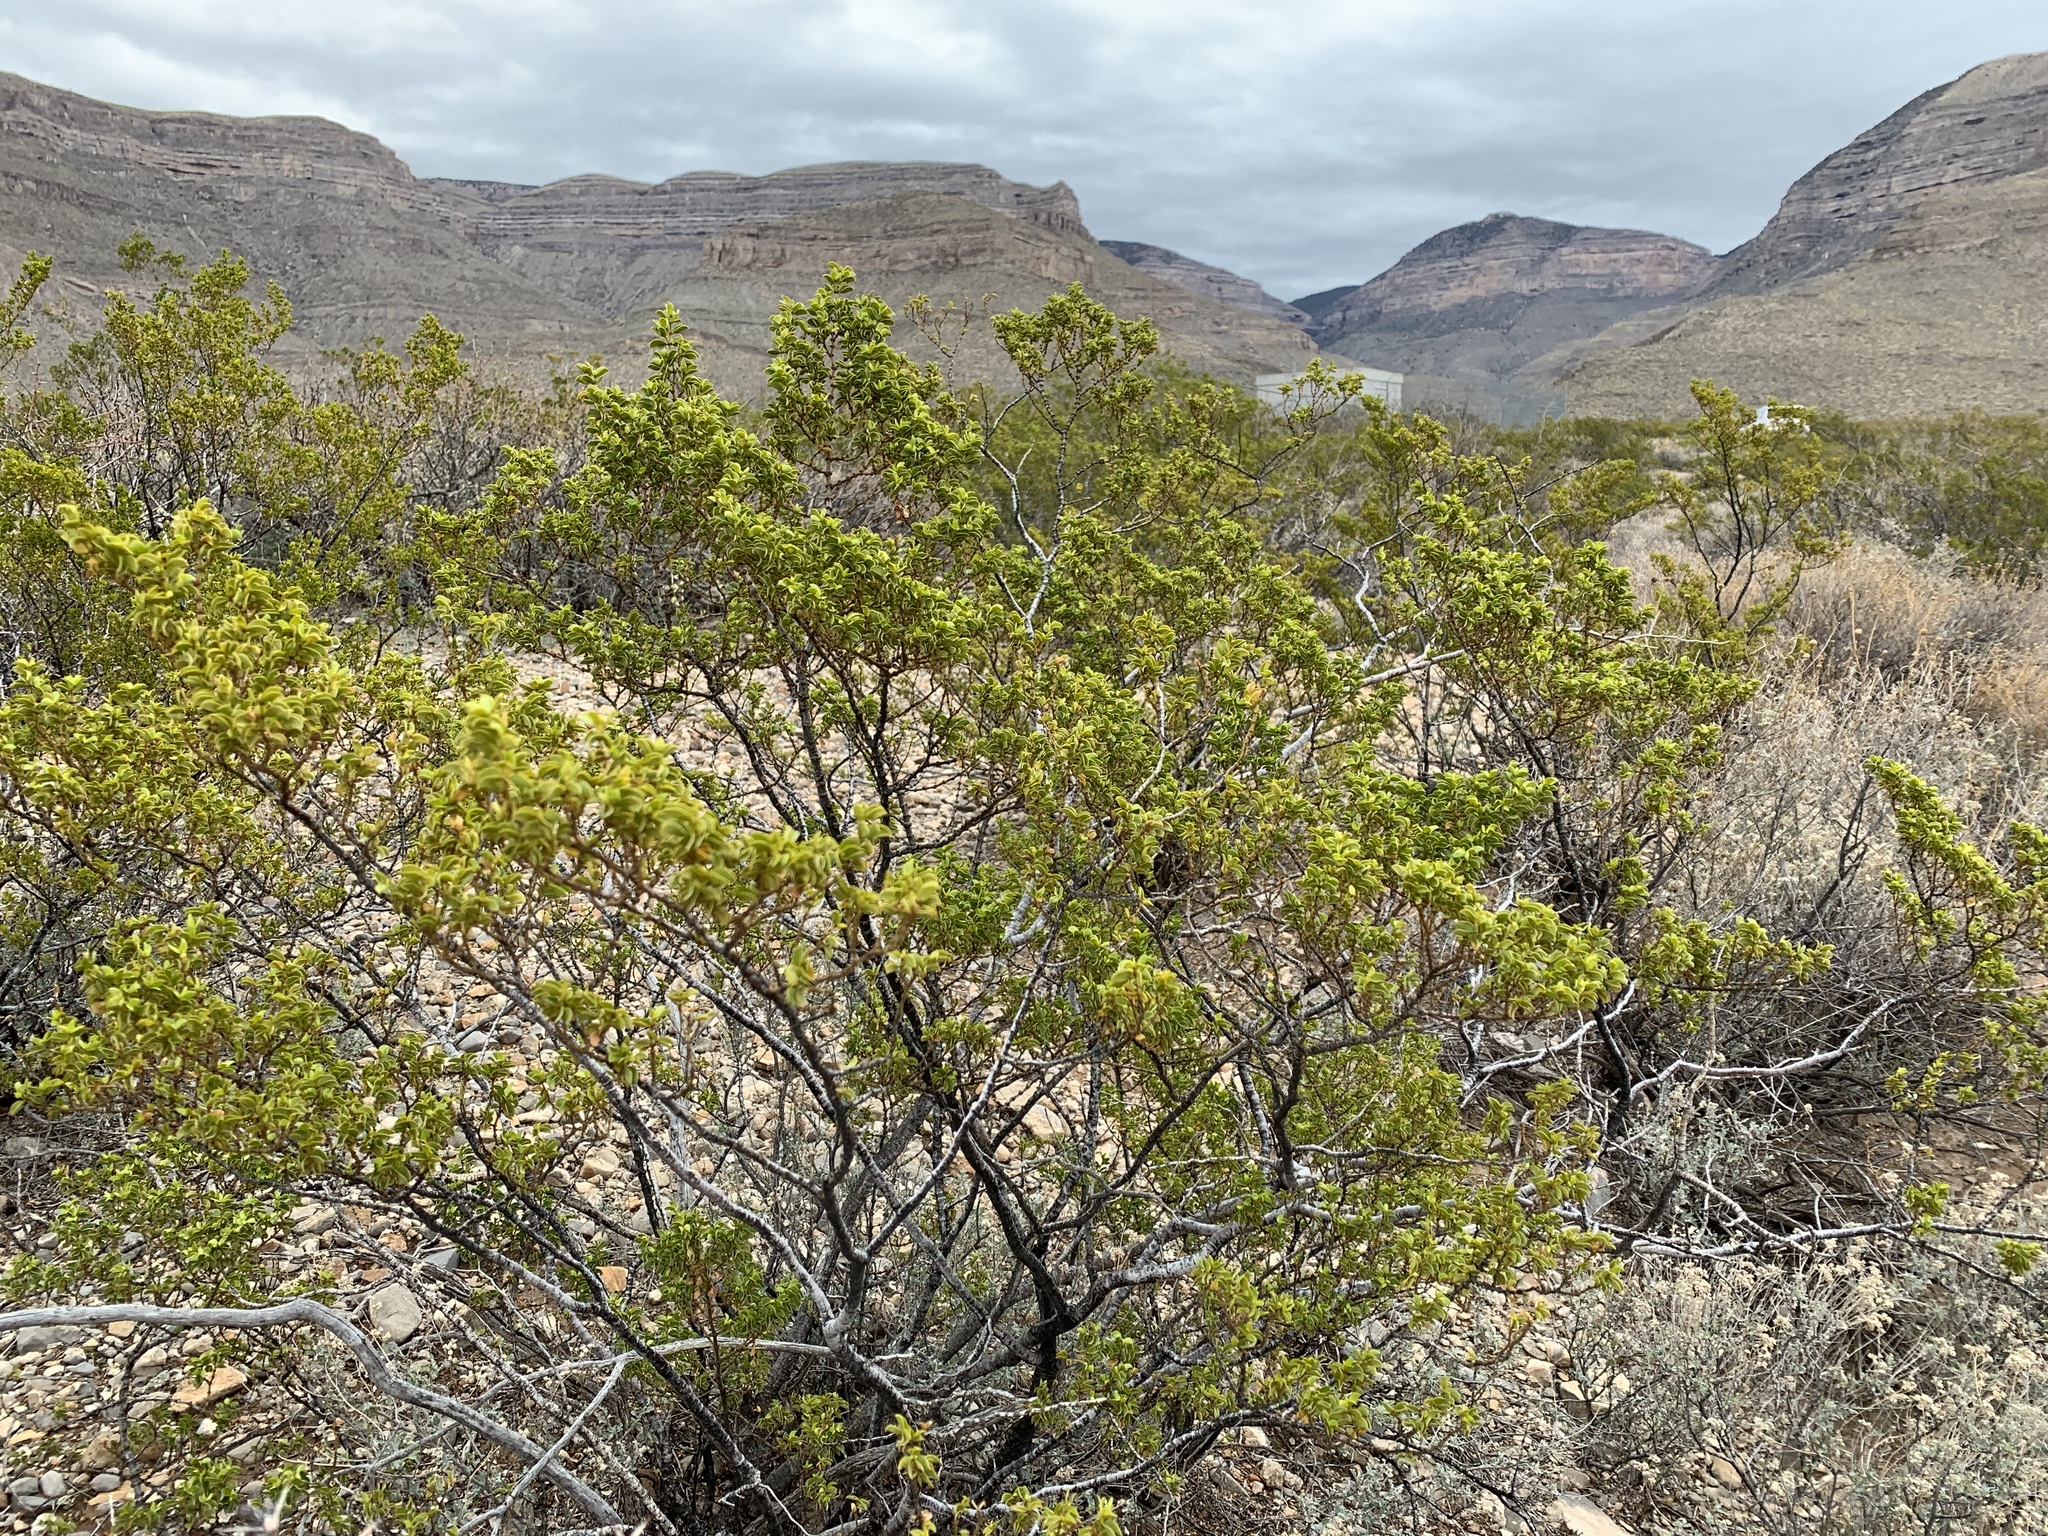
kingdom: Plantae
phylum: Tracheophyta
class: Magnoliopsida
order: Zygophyllales
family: Zygophyllaceae
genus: Larrea
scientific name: Larrea tridentata
